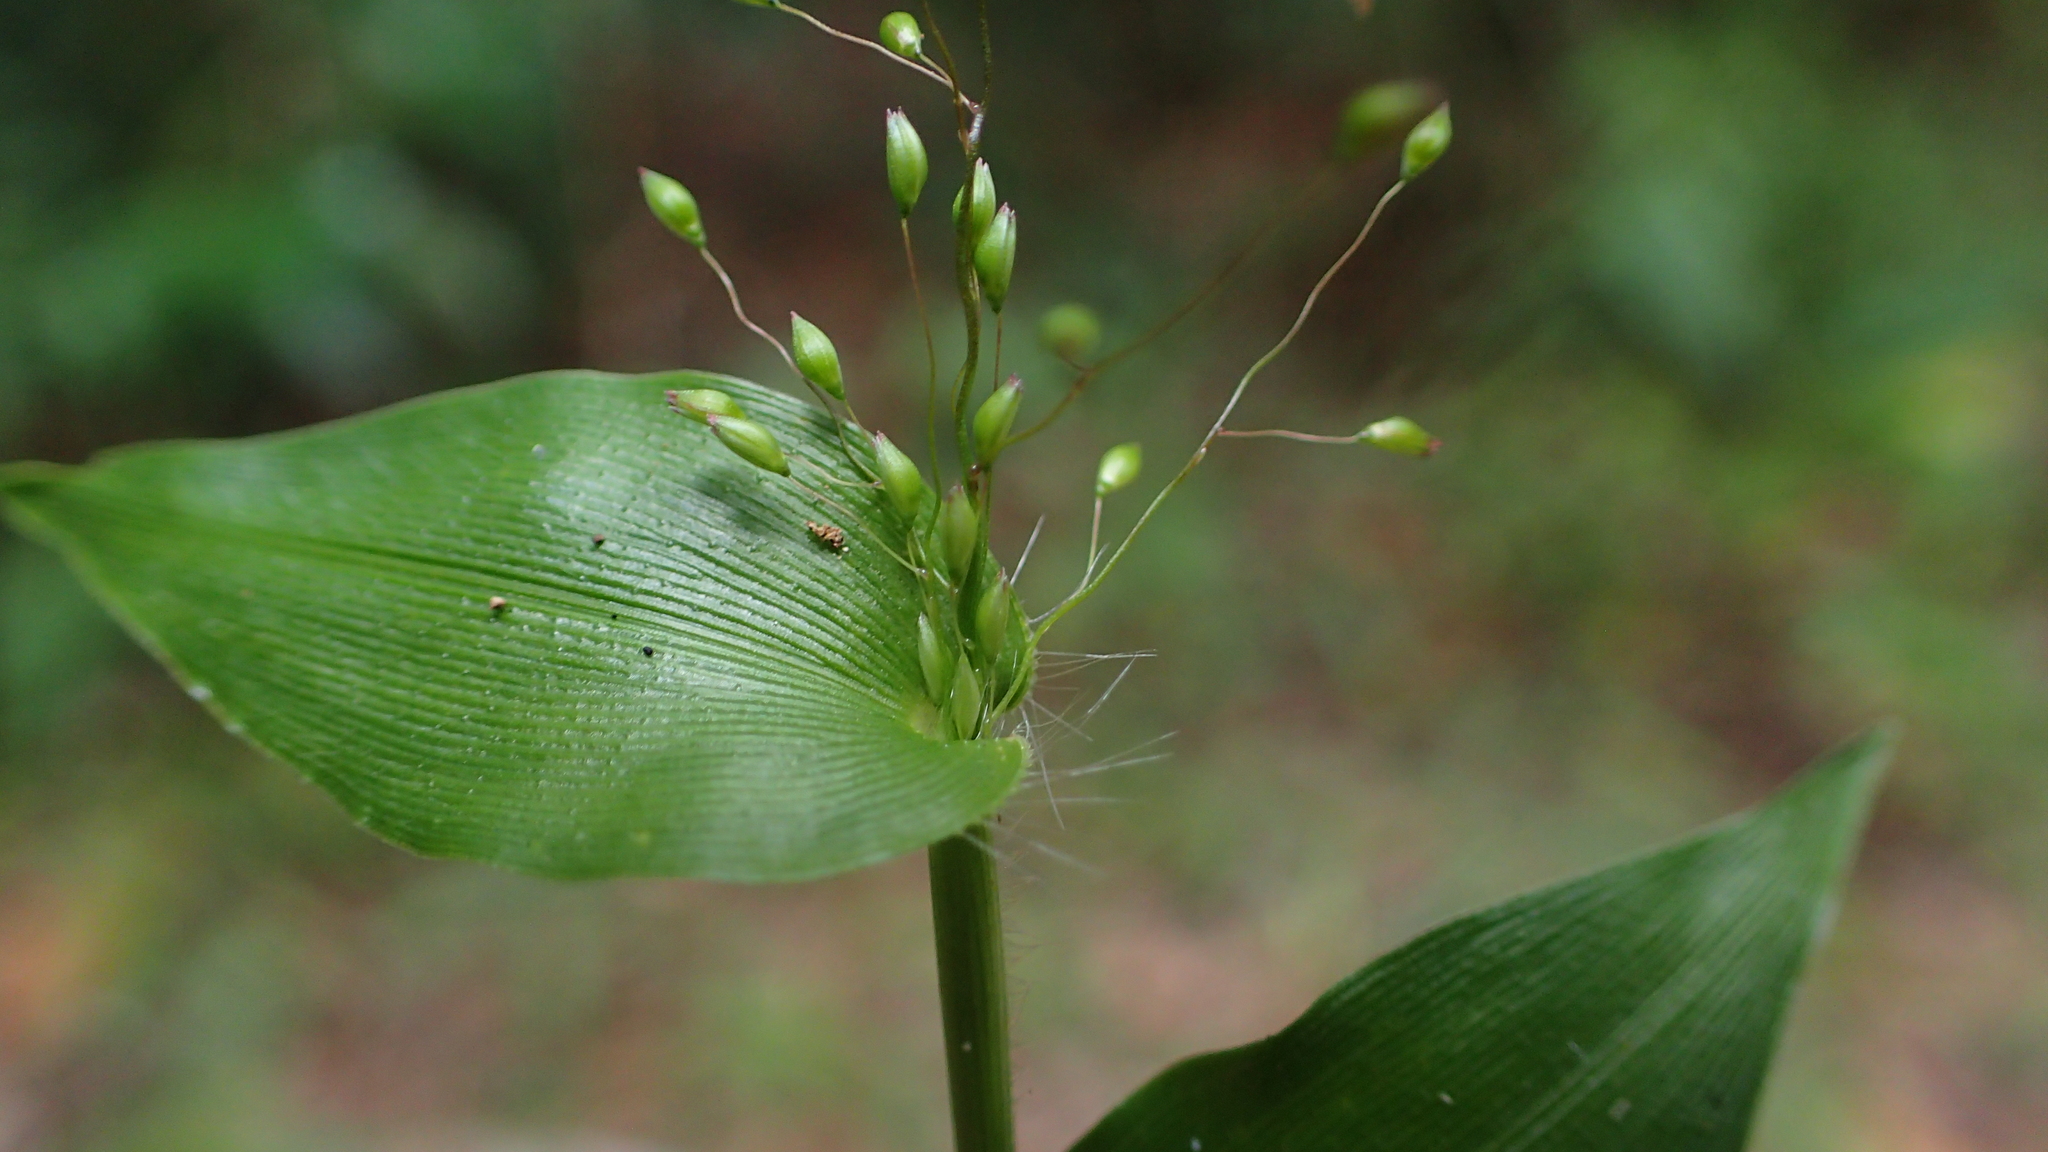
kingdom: Plantae
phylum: Tracheophyta
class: Liliopsida
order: Poales
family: Poaceae
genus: Panicum
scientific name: Panicum brevifolium
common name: Shortleaf panic grass
